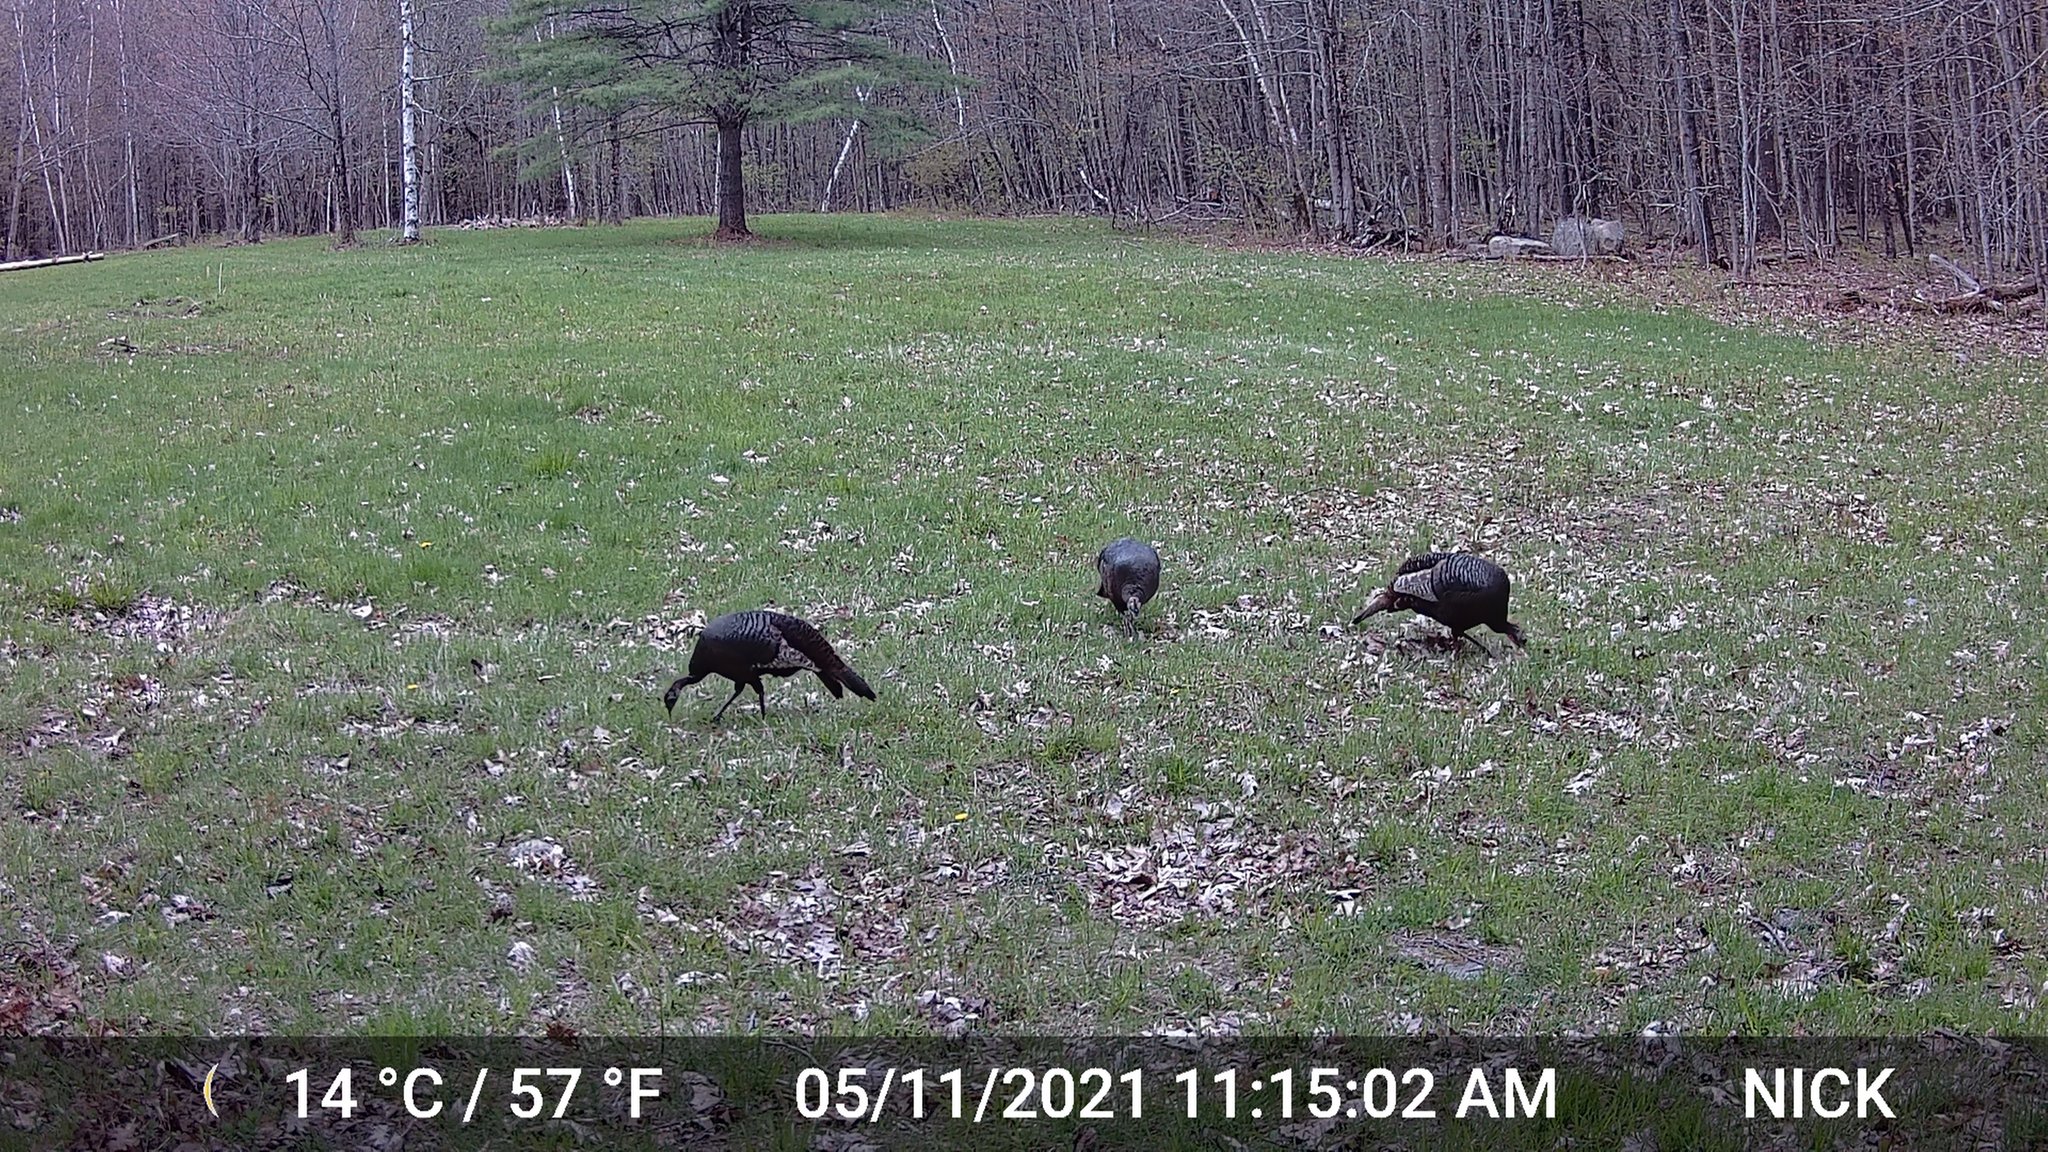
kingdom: Animalia
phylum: Chordata
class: Aves
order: Galliformes
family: Phasianidae
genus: Meleagris
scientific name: Meleagris gallopavo
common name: Wild turkey
